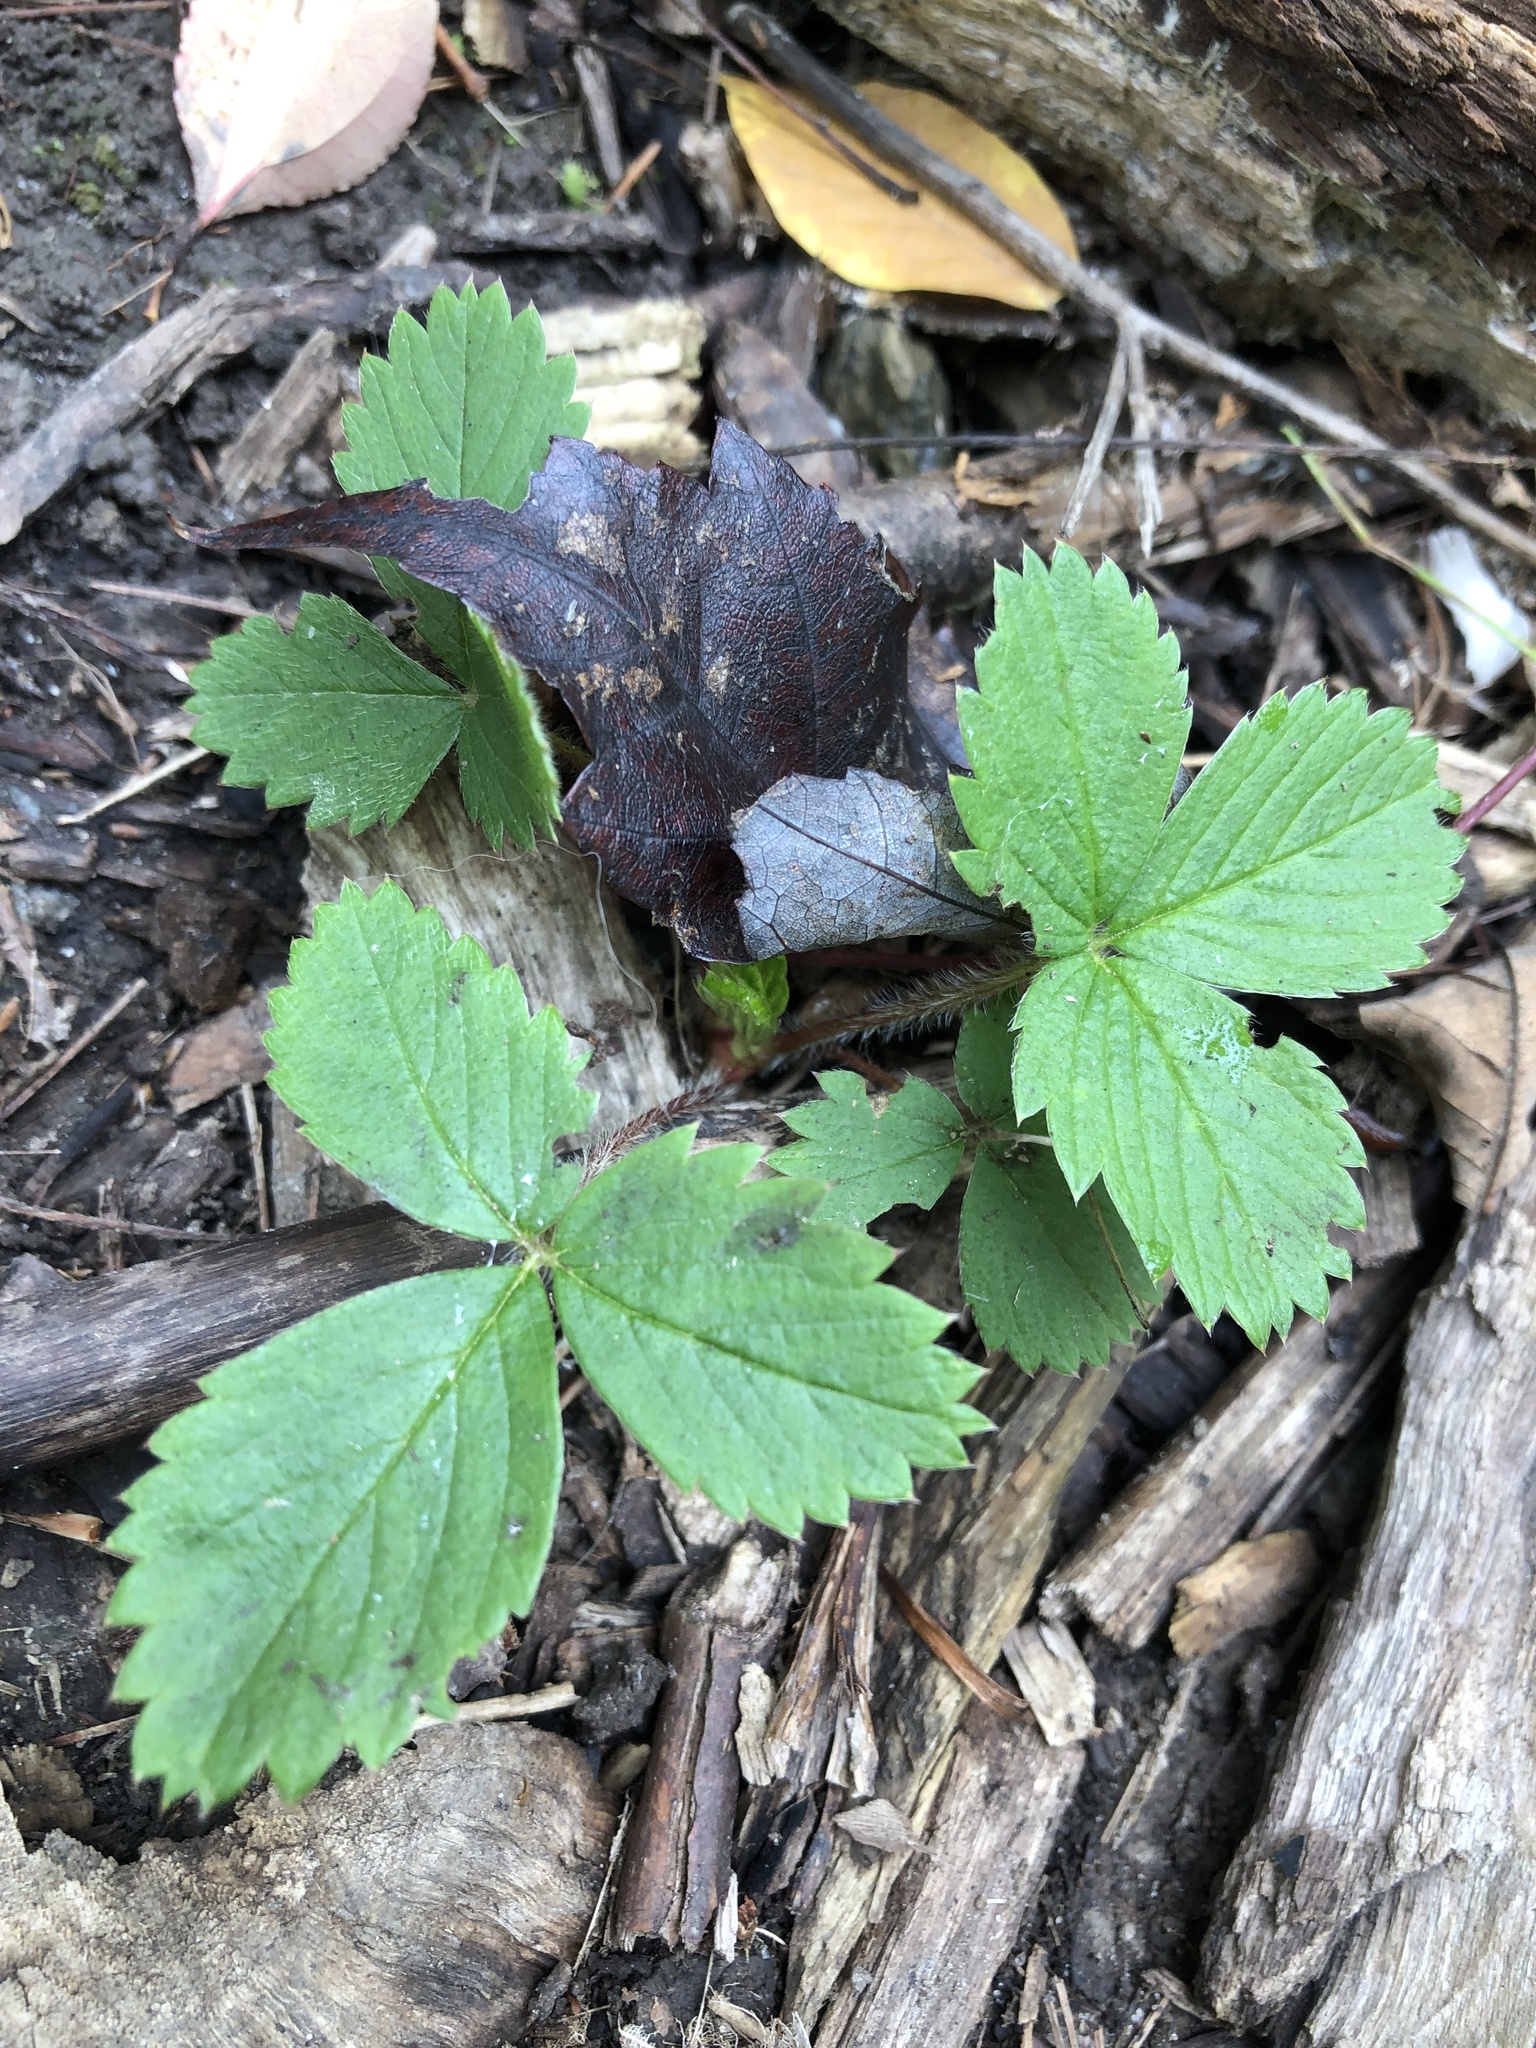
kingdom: Plantae
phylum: Tracheophyta
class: Magnoliopsida
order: Rosales
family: Rosaceae
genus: Fragaria
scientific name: Fragaria virginiana
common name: Thickleaved wild strawberry
